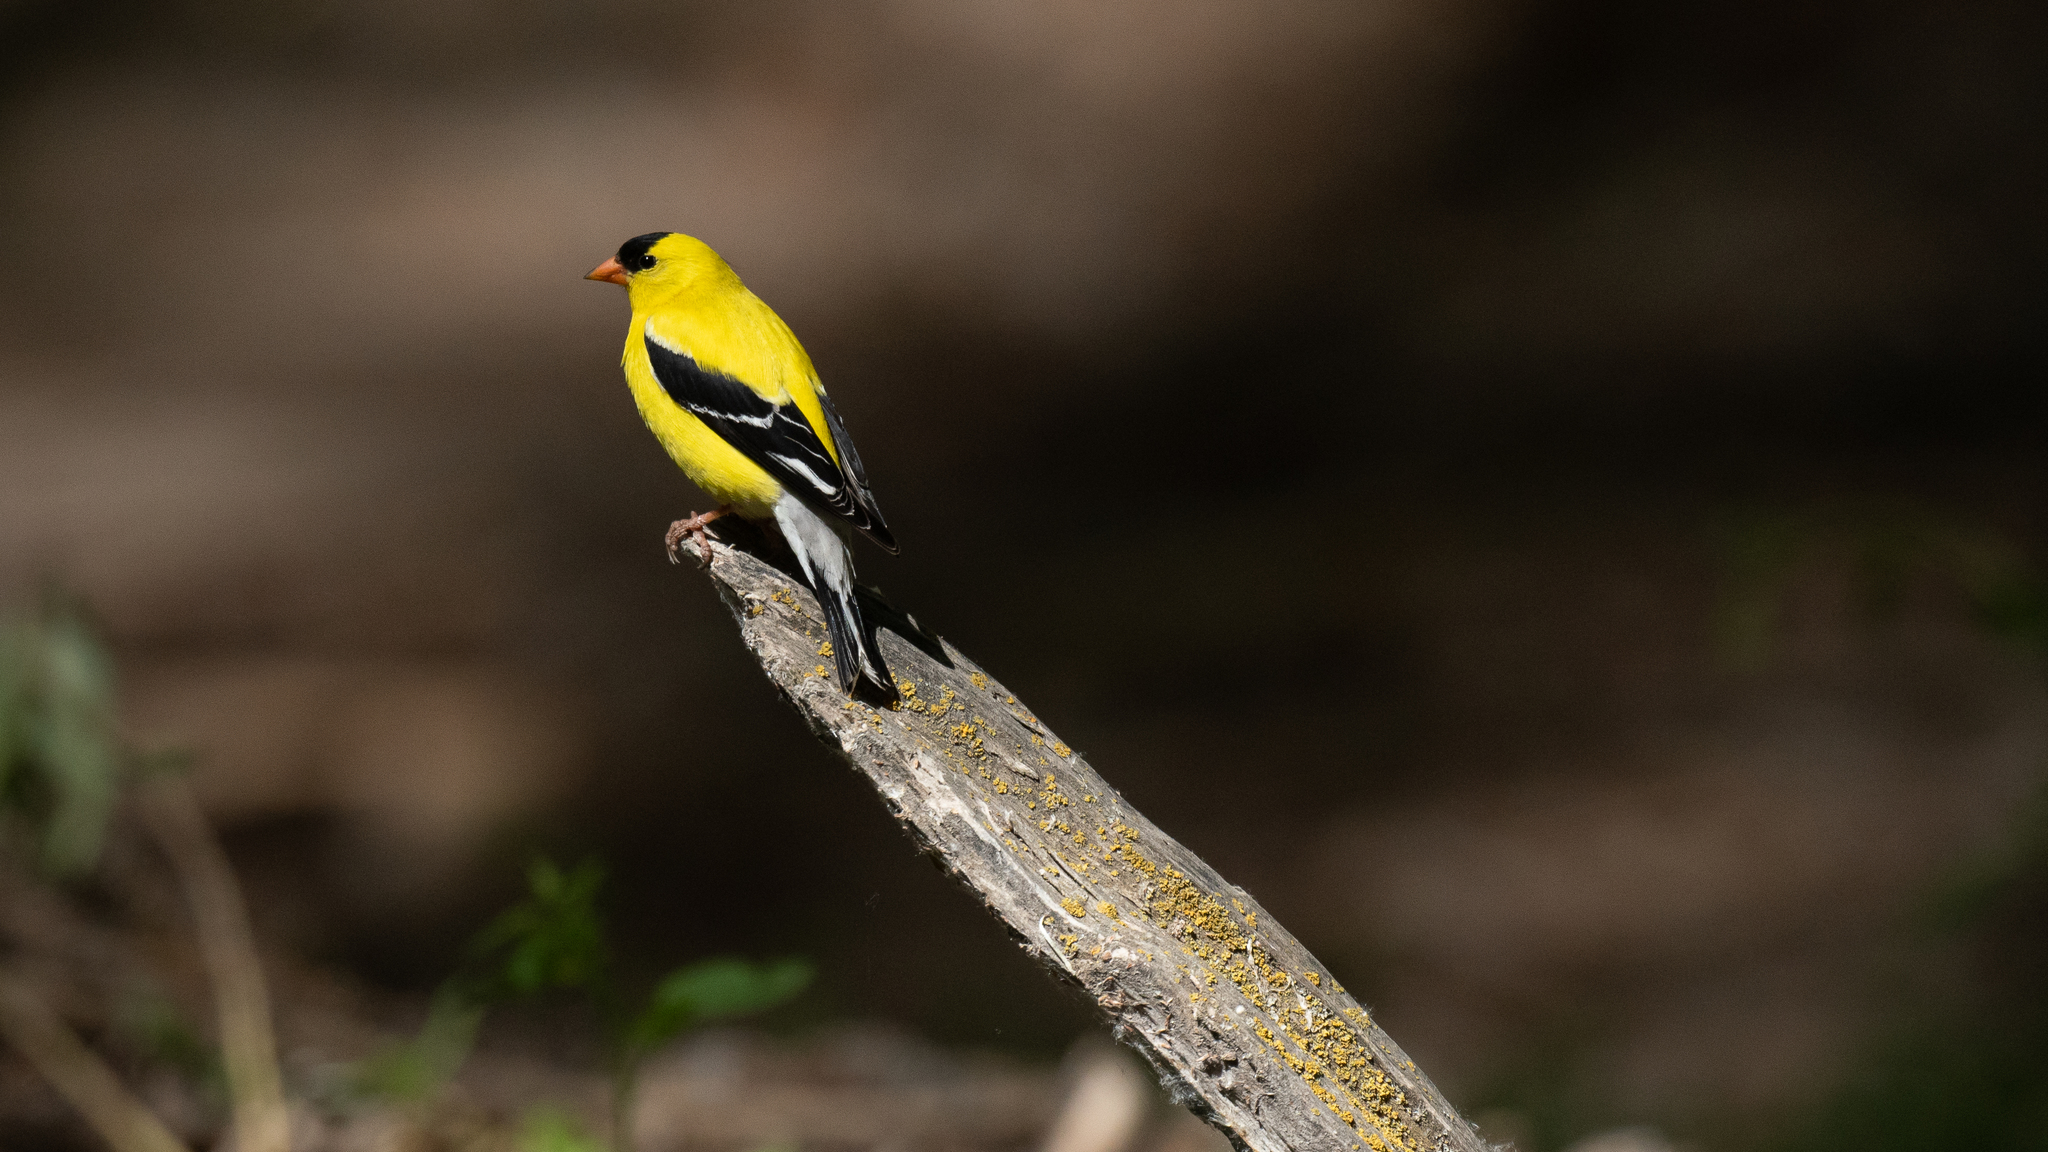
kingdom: Animalia
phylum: Chordata
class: Aves
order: Passeriformes
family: Fringillidae
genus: Spinus
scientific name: Spinus tristis
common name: American goldfinch
